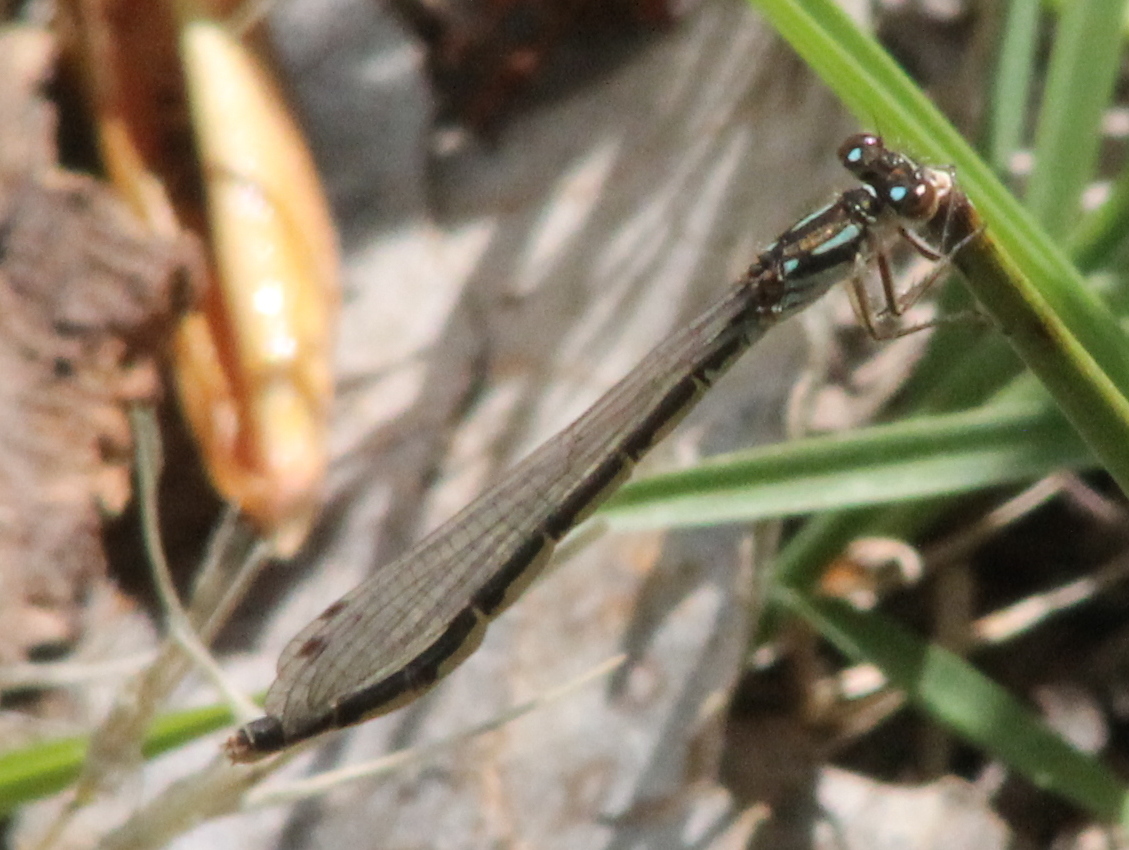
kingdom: Animalia
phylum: Arthropoda
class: Insecta
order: Odonata
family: Coenagrionidae
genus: Ischnura
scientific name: Ischnura posita
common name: Fragile forktail
